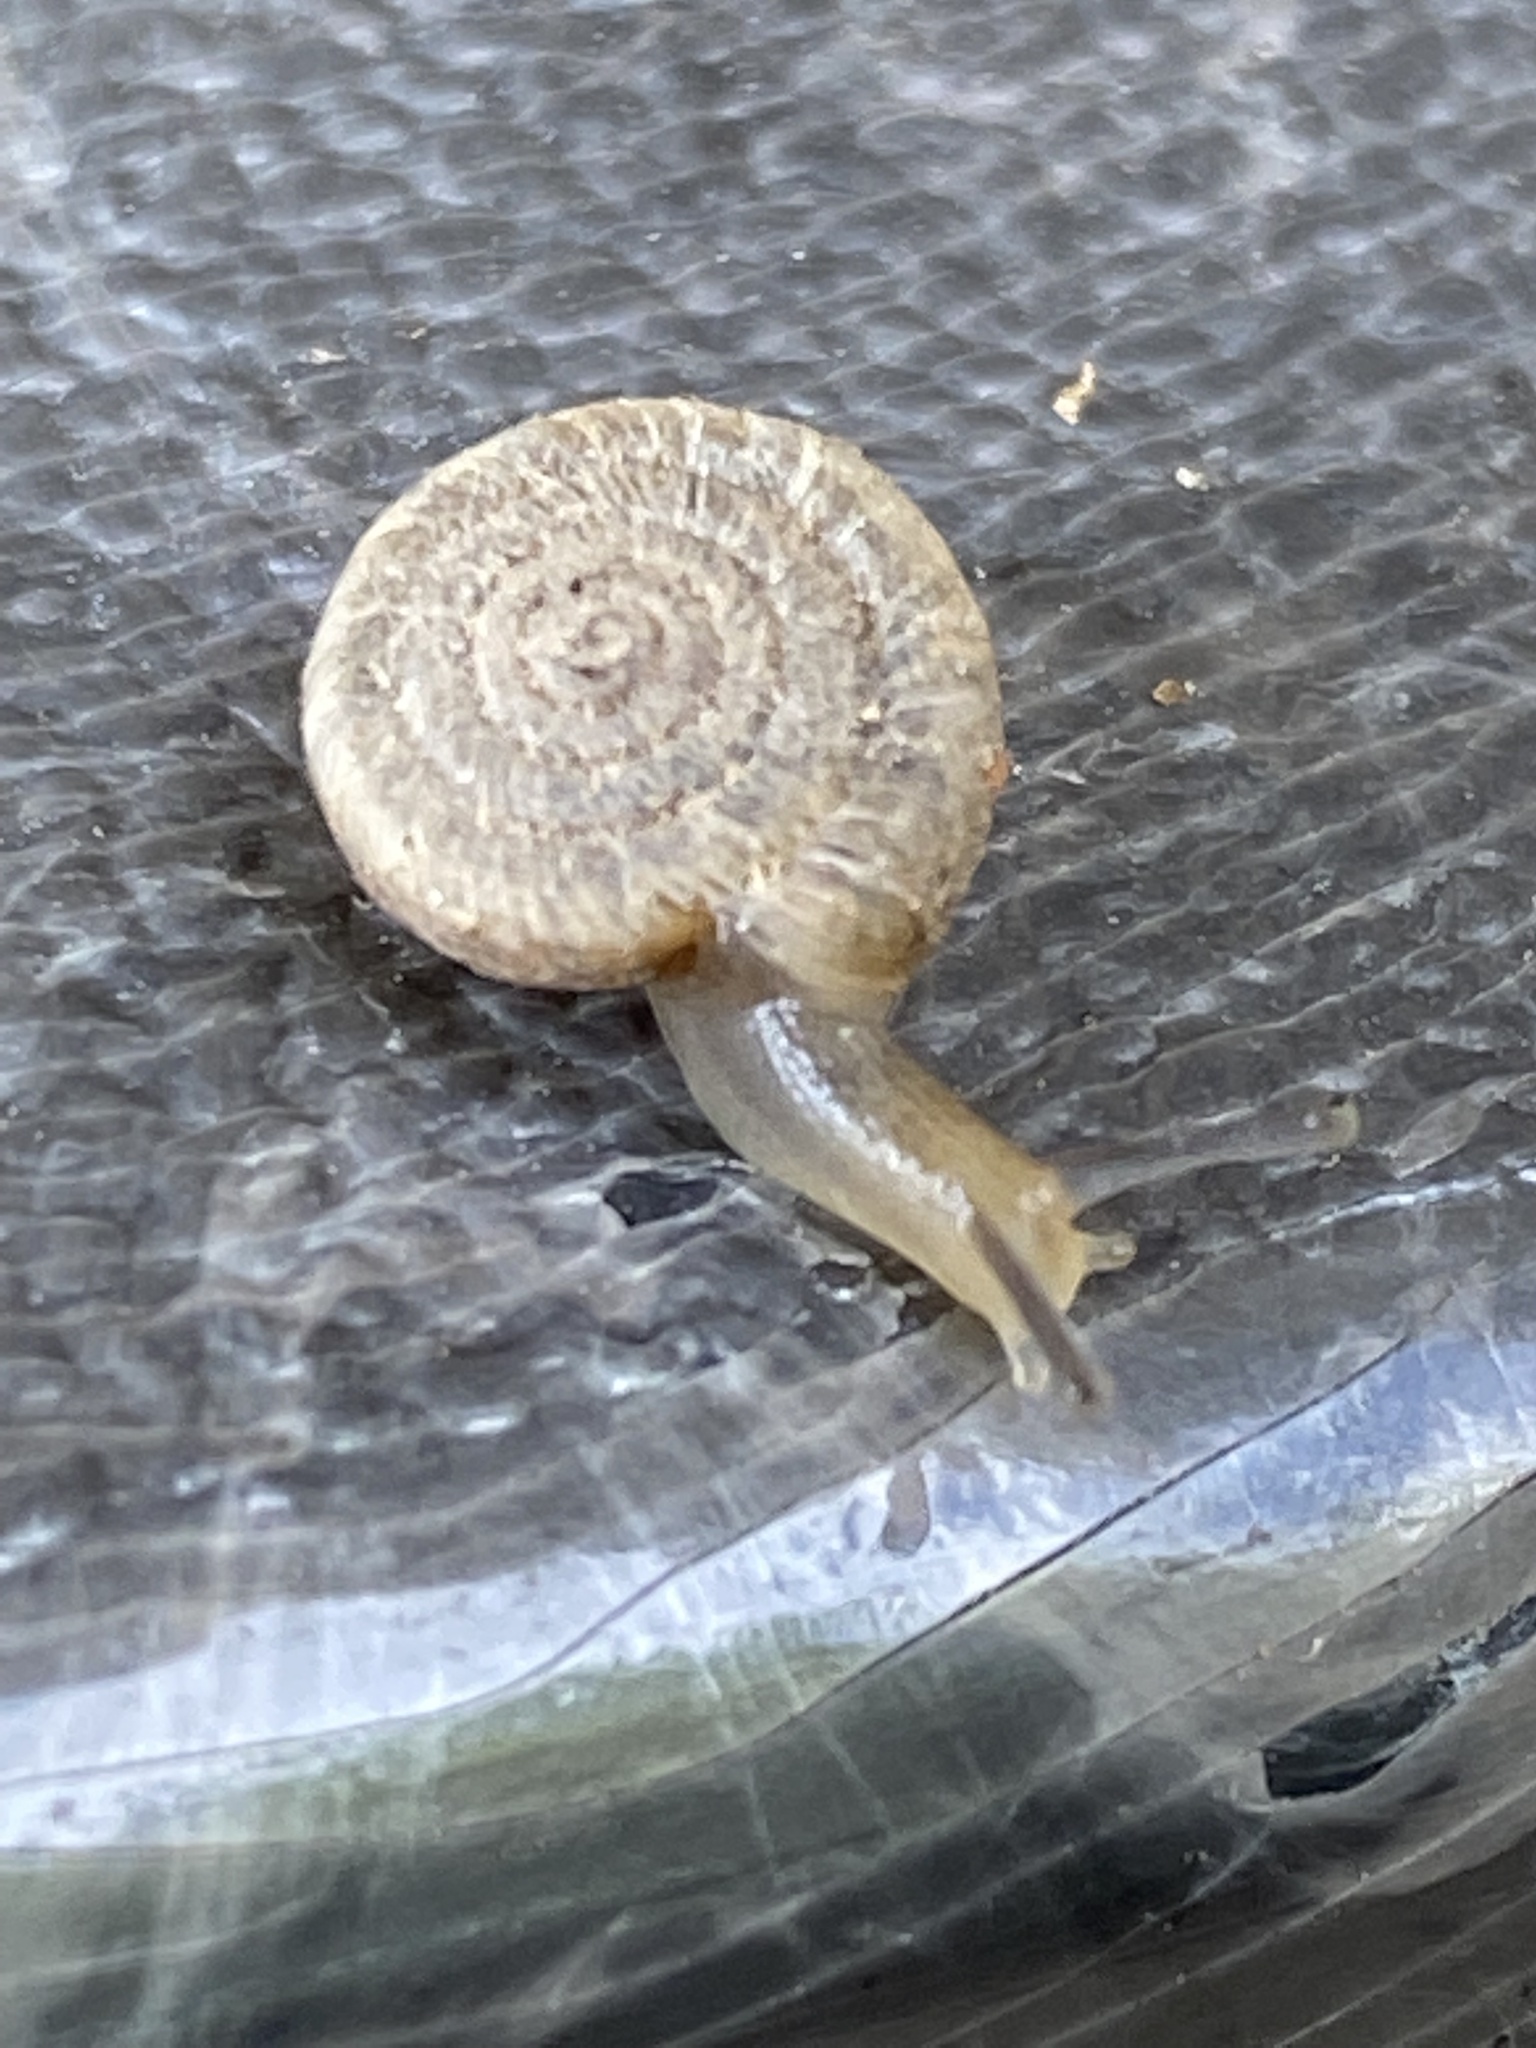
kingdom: Animalia
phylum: Mollusca
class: Gastropoda
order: Stylommatophora
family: Polygyridae
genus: Polygyra
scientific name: Polygyra cereolus
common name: Southern flatcone snail
